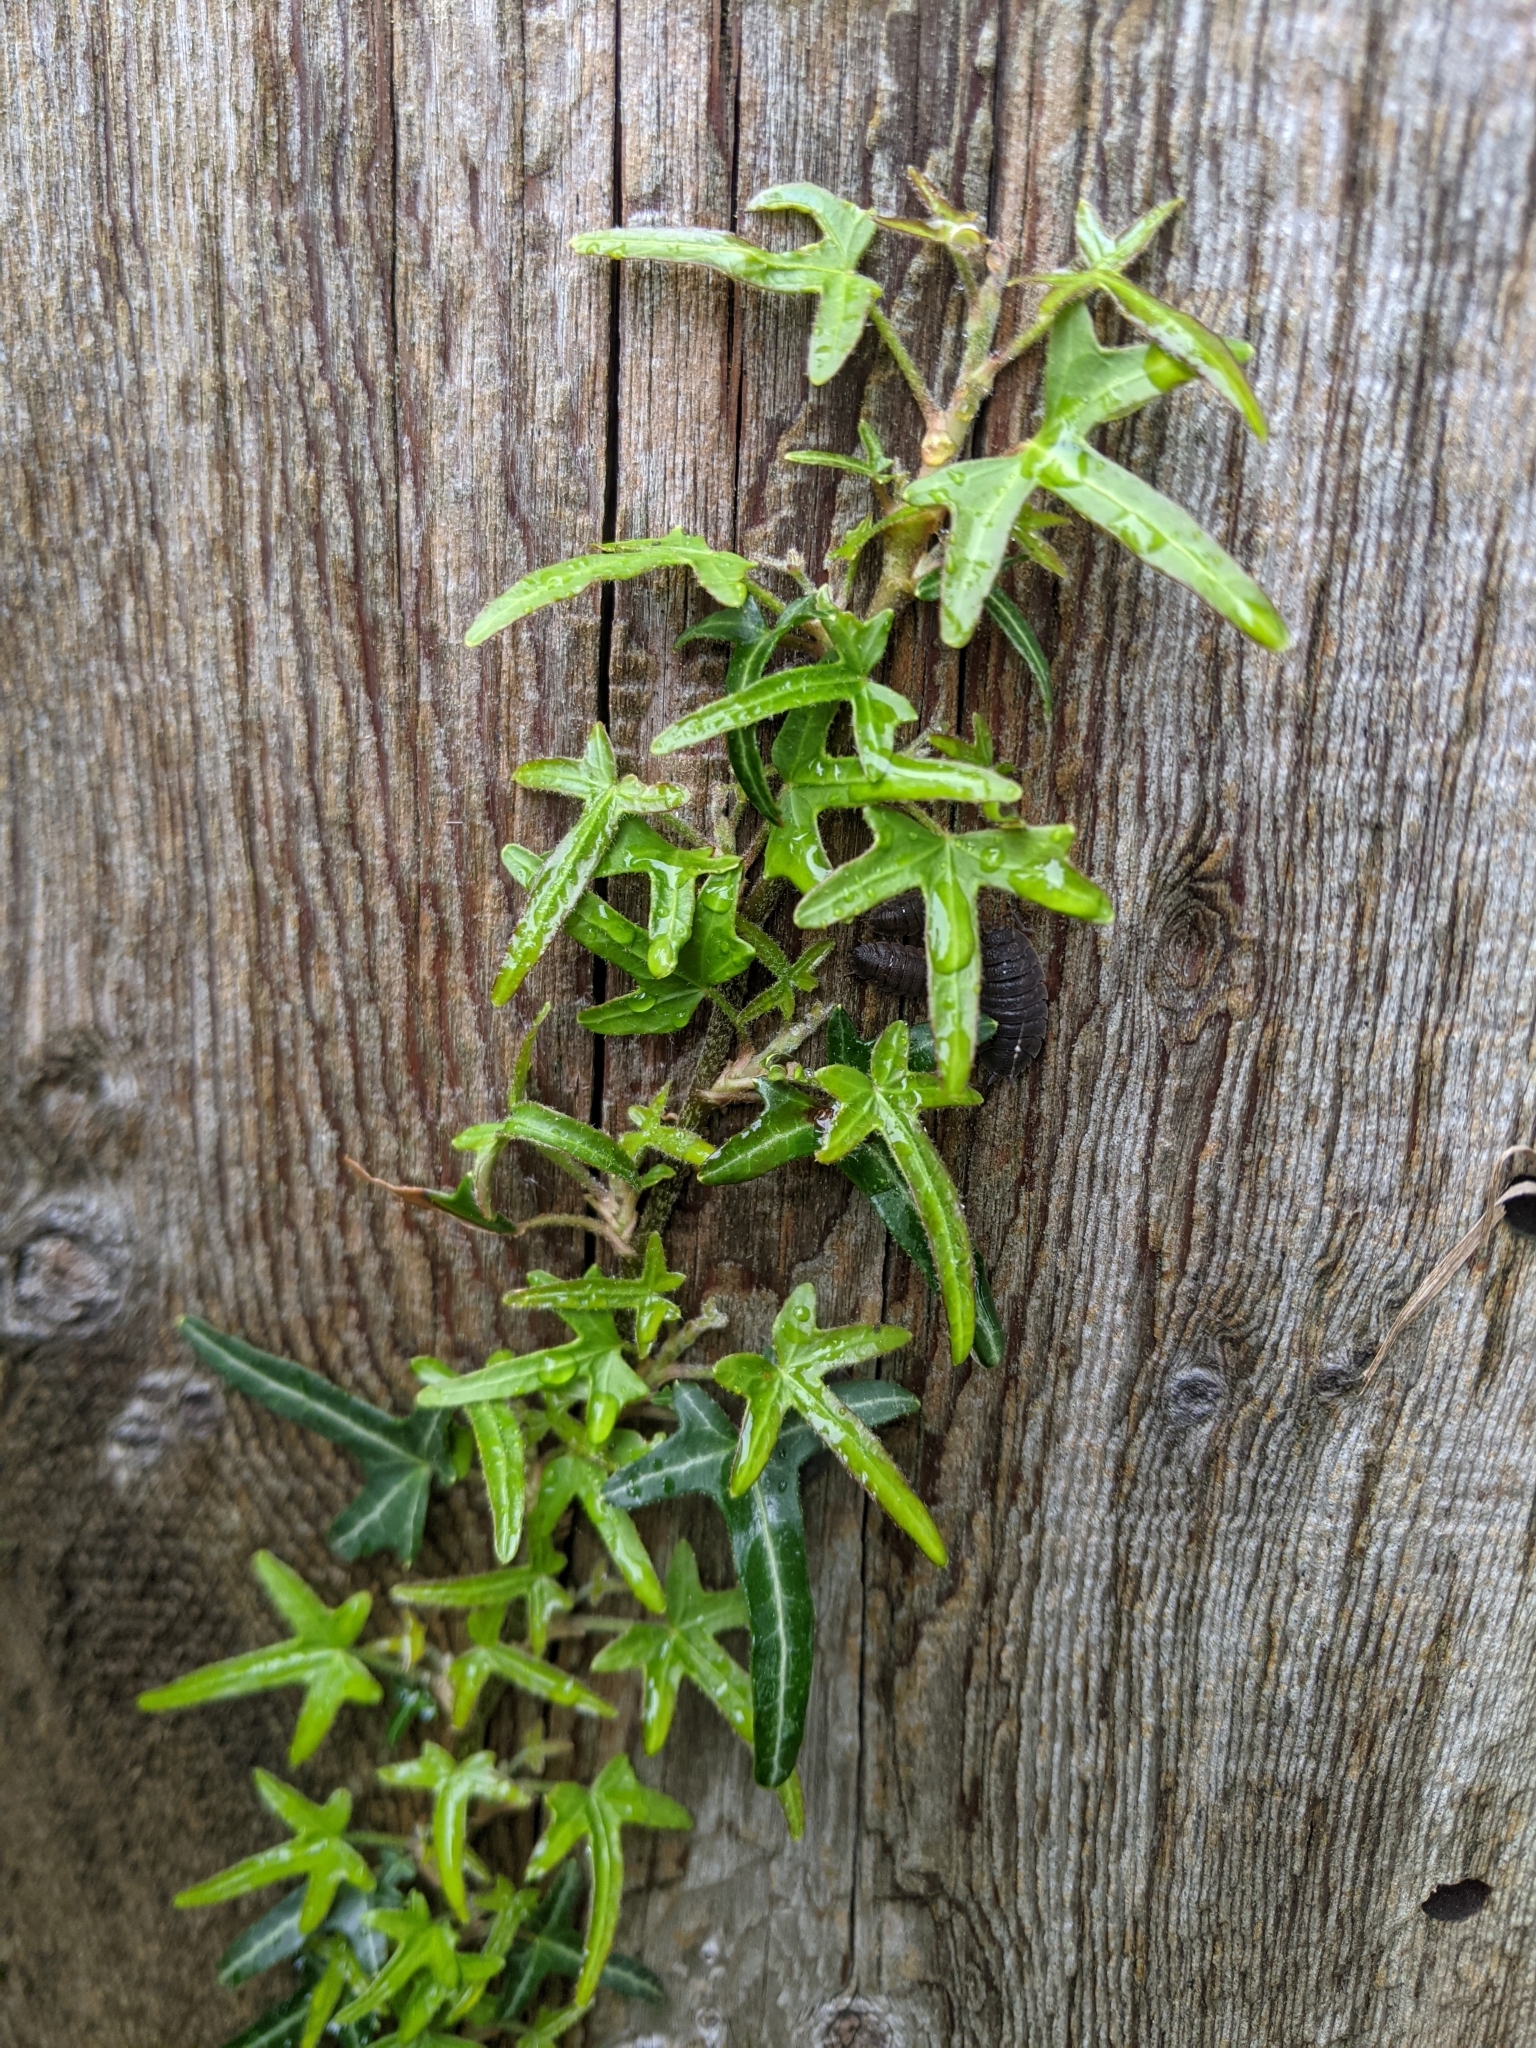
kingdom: Plantae
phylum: Tracheophyta
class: Magnoliopsida
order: Apiales
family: Araliaceae
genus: Hedera
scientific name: Hedera helix
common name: Ivy
